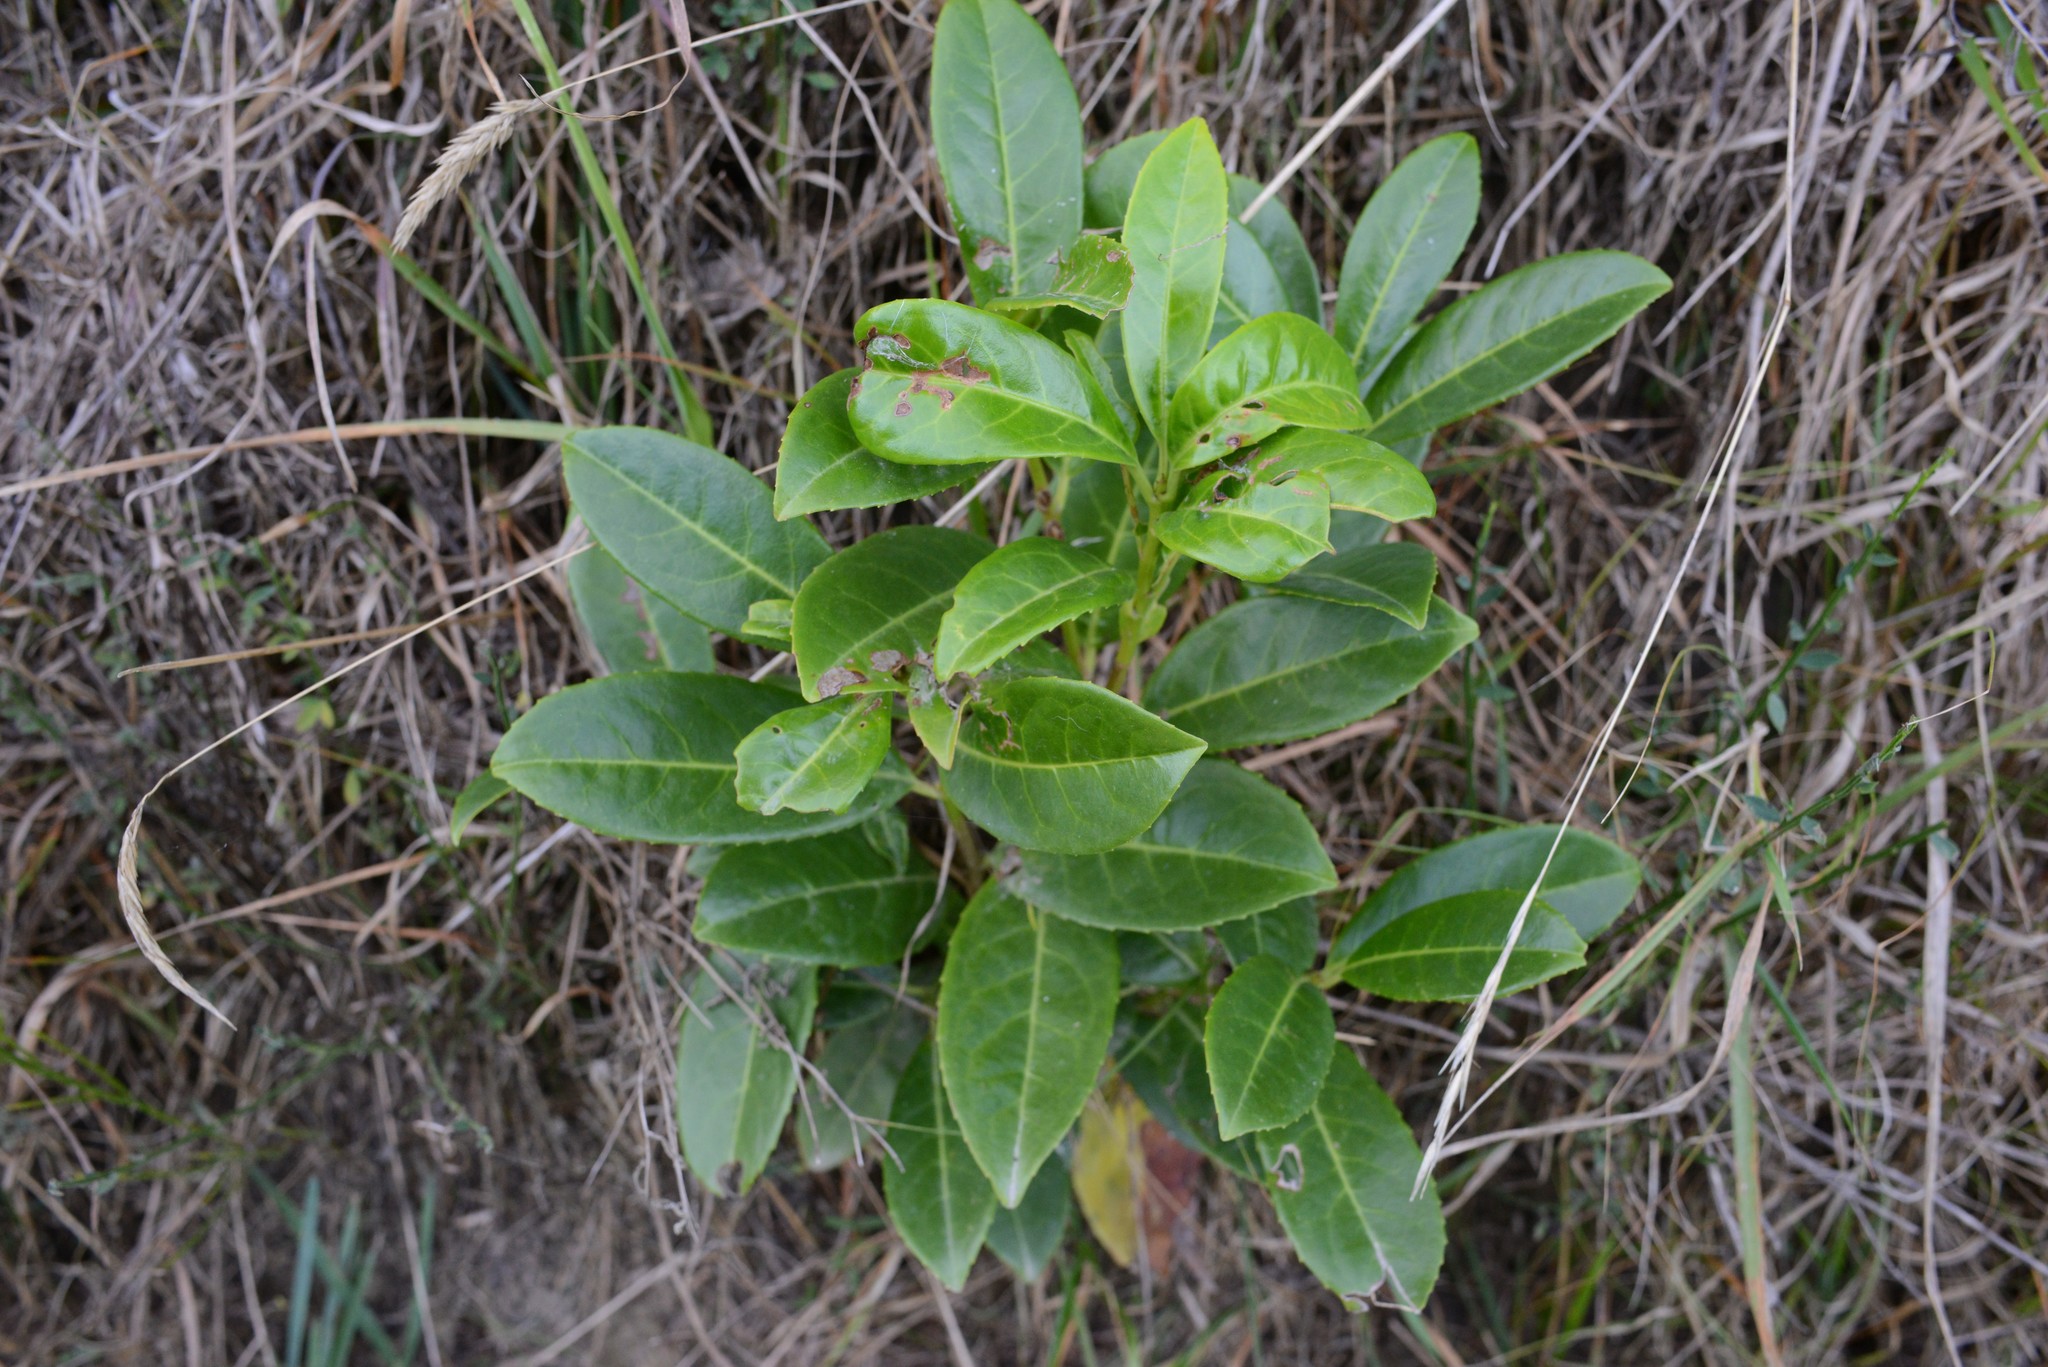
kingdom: Plantae
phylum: Tracheophyta
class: Magnoliopsida
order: Rosales
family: Rosaceae
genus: Prunus
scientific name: Prunus laurocerasus
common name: Cherry laurel
